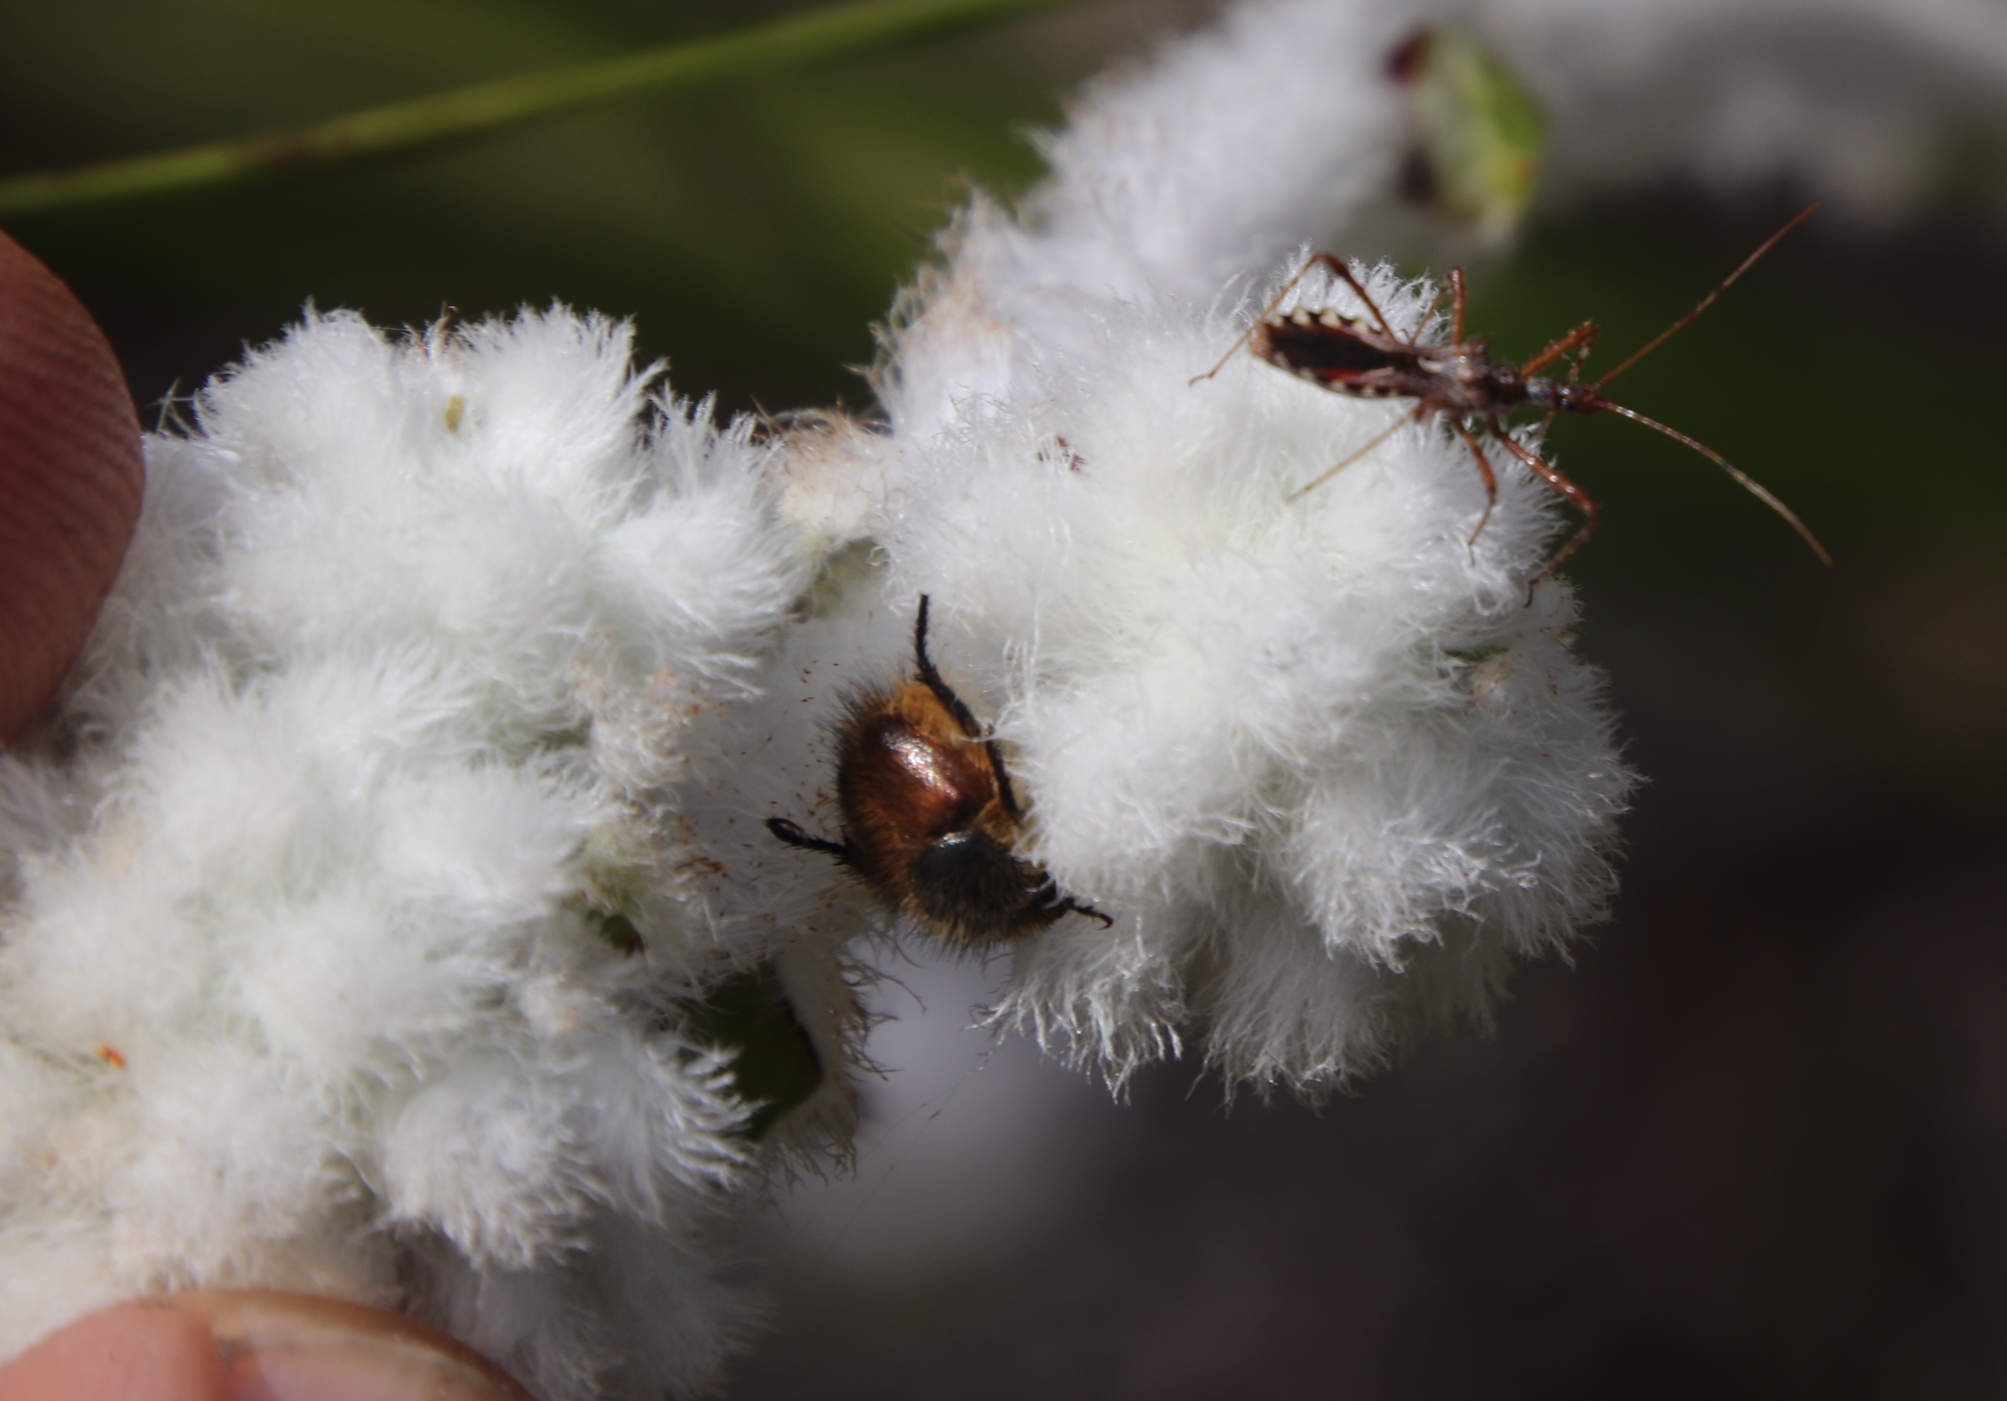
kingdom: Plantae
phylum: Tracheophyta
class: Liliopsida
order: Asparagales
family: Lanariaceae
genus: Lanaria
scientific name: Lanaria lanata
